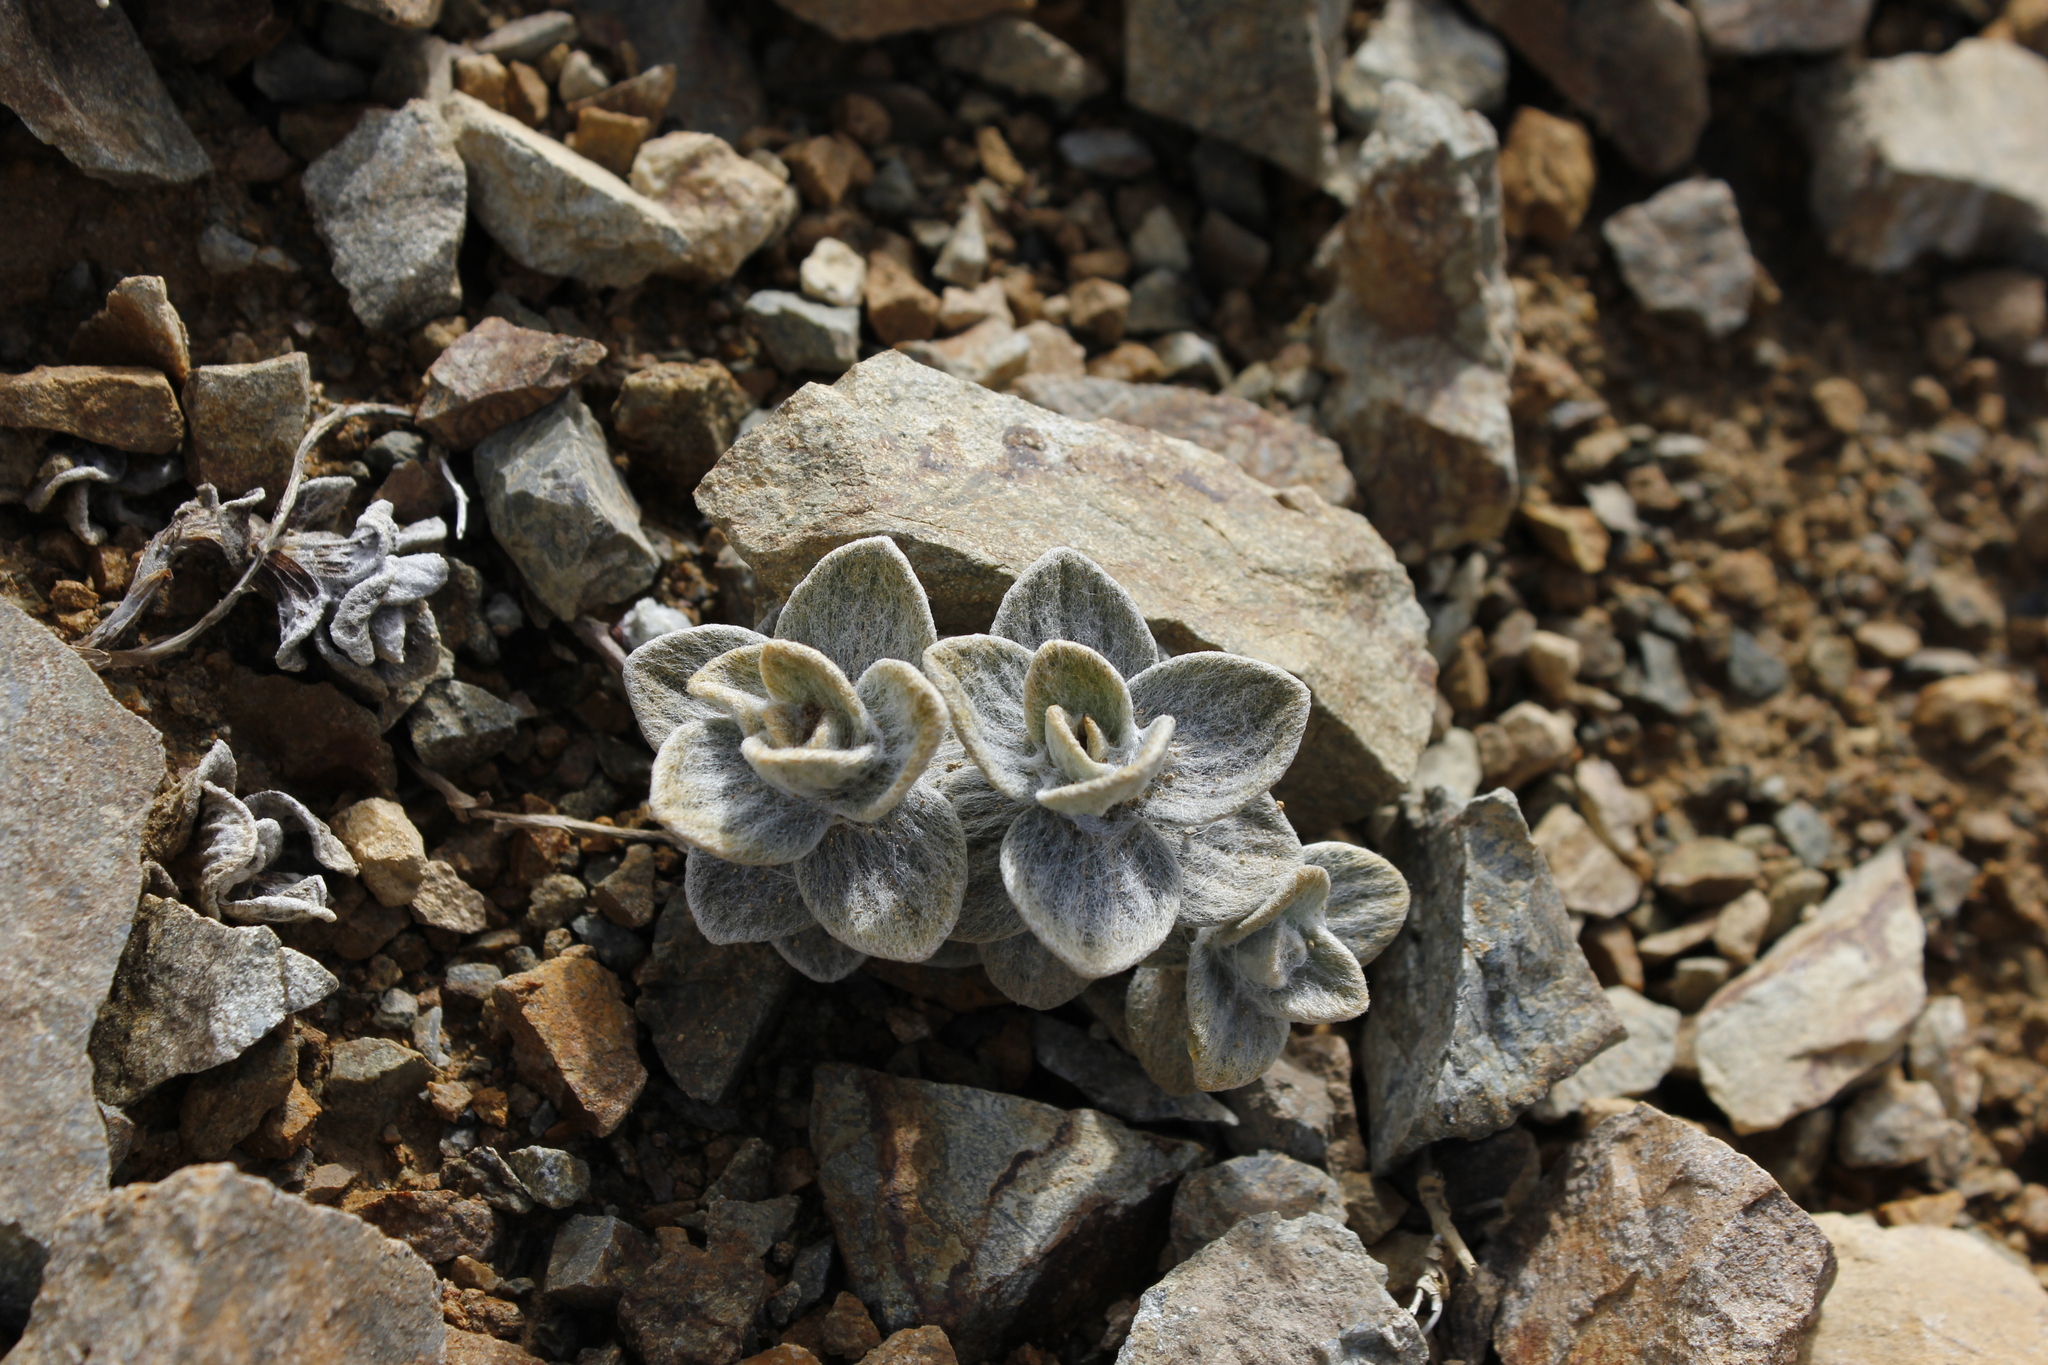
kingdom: Plantae
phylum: Tracheophyta
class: Magnoliopsida
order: Asterales
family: Asteraceae
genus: Haastia
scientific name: Haastia sinclairii
